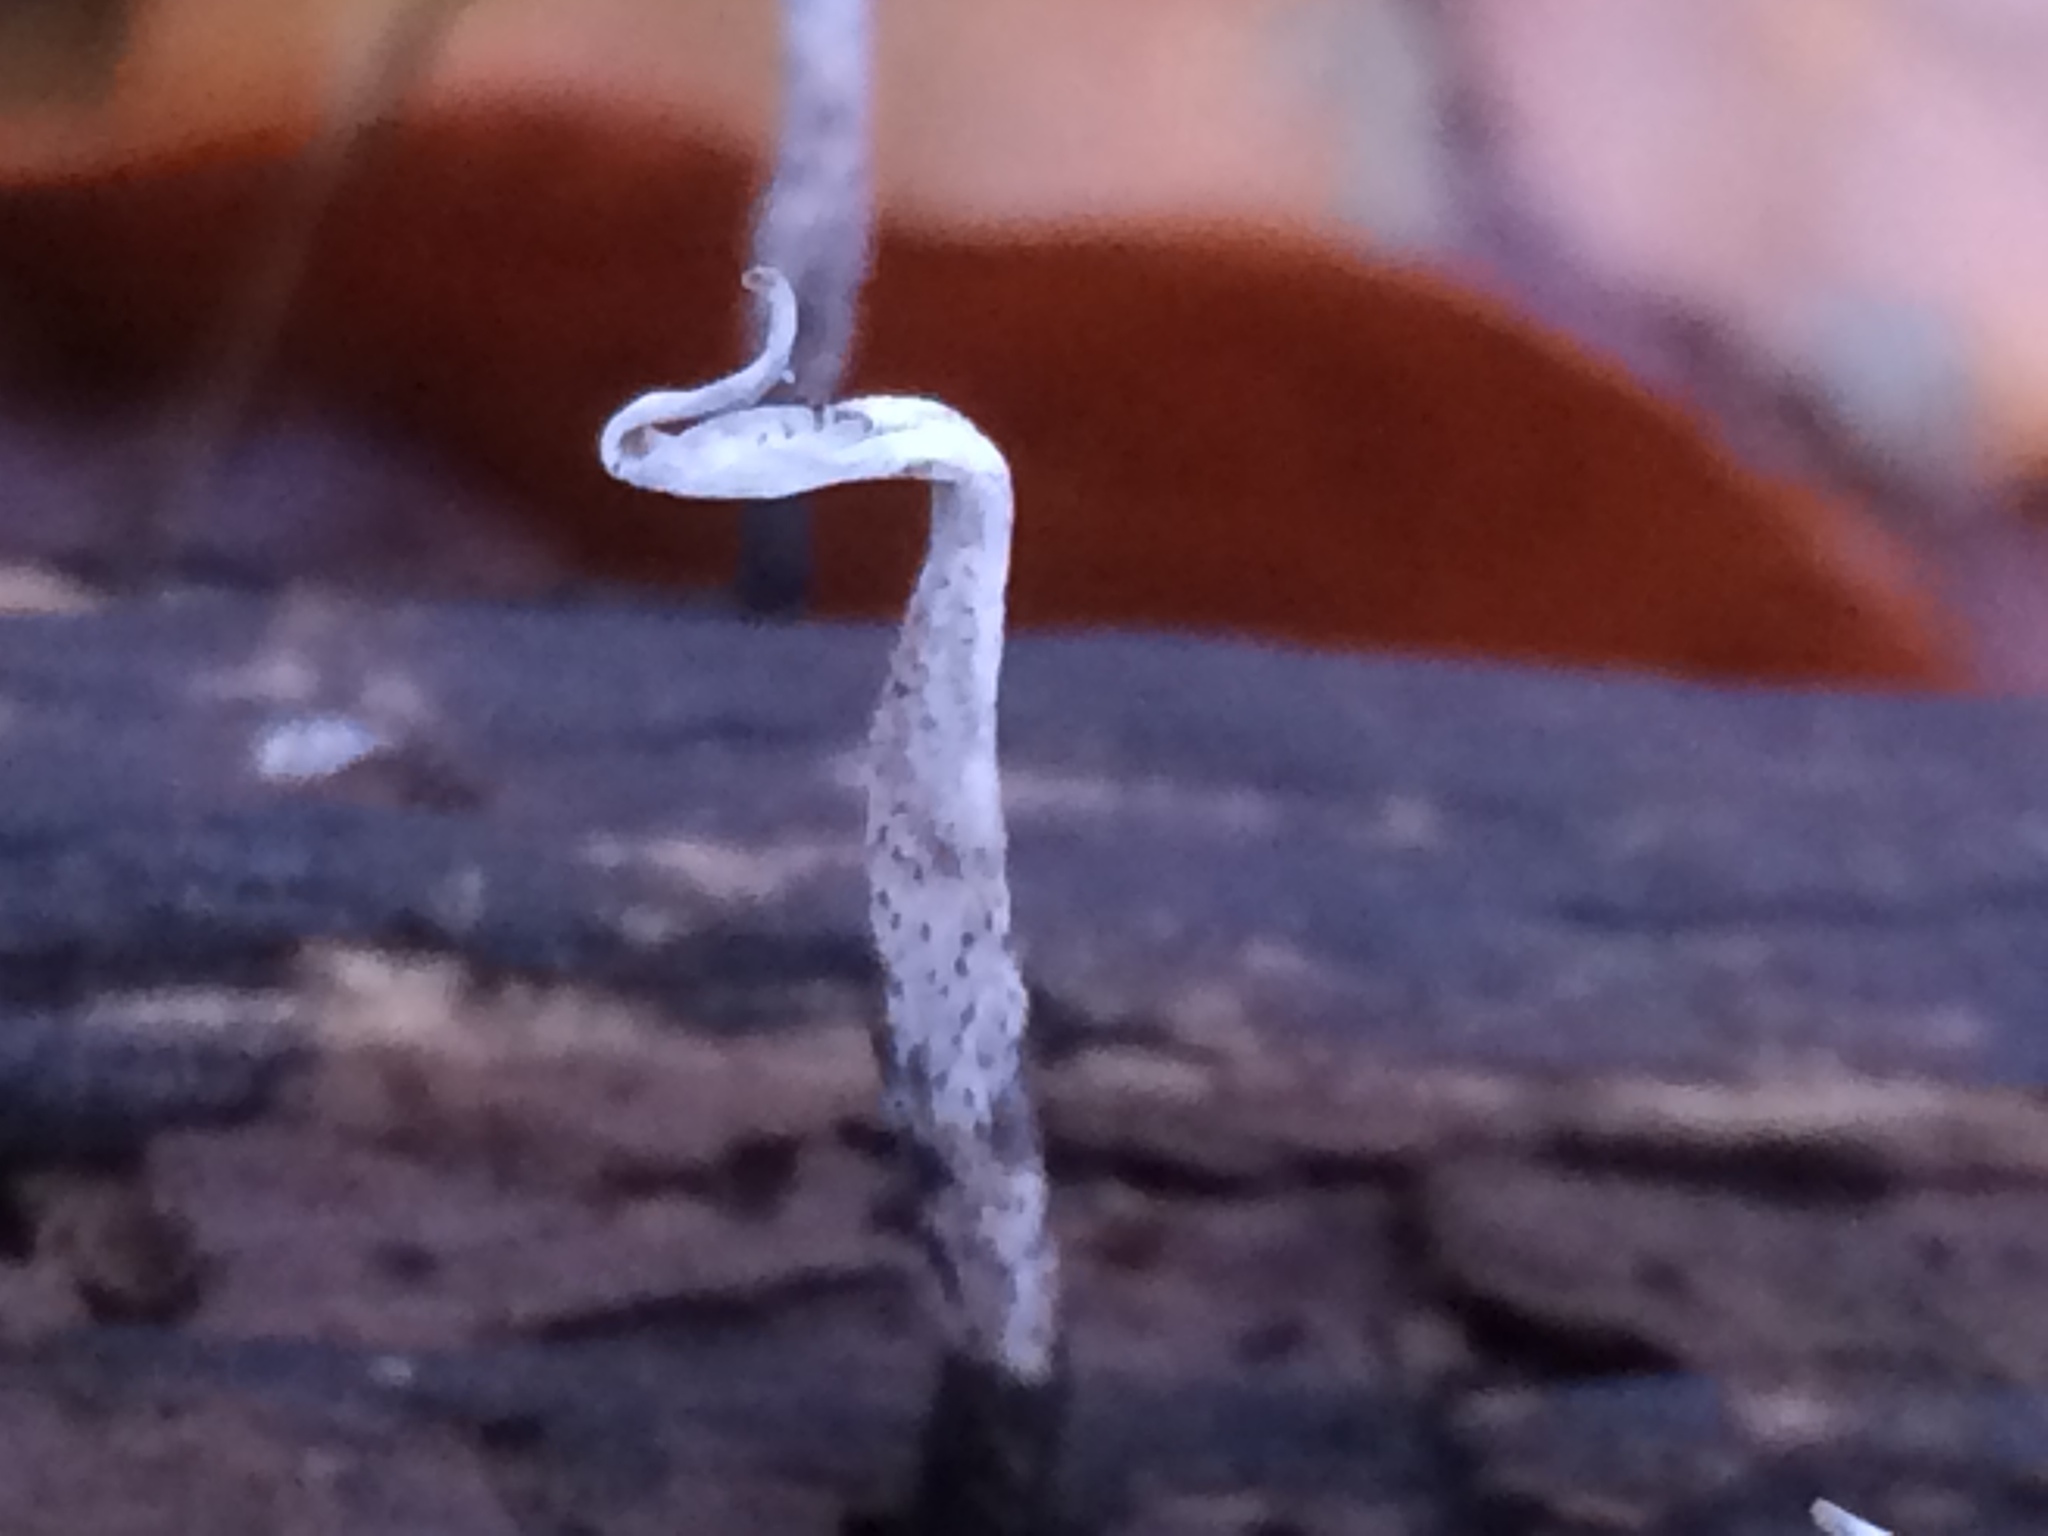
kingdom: Fungi
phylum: Ascomycota
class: Sordariomycetes
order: Xylariales
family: Xylariaceae
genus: Xylaria
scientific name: Xylaria hypoxylon
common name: Candle-snuff fungus
